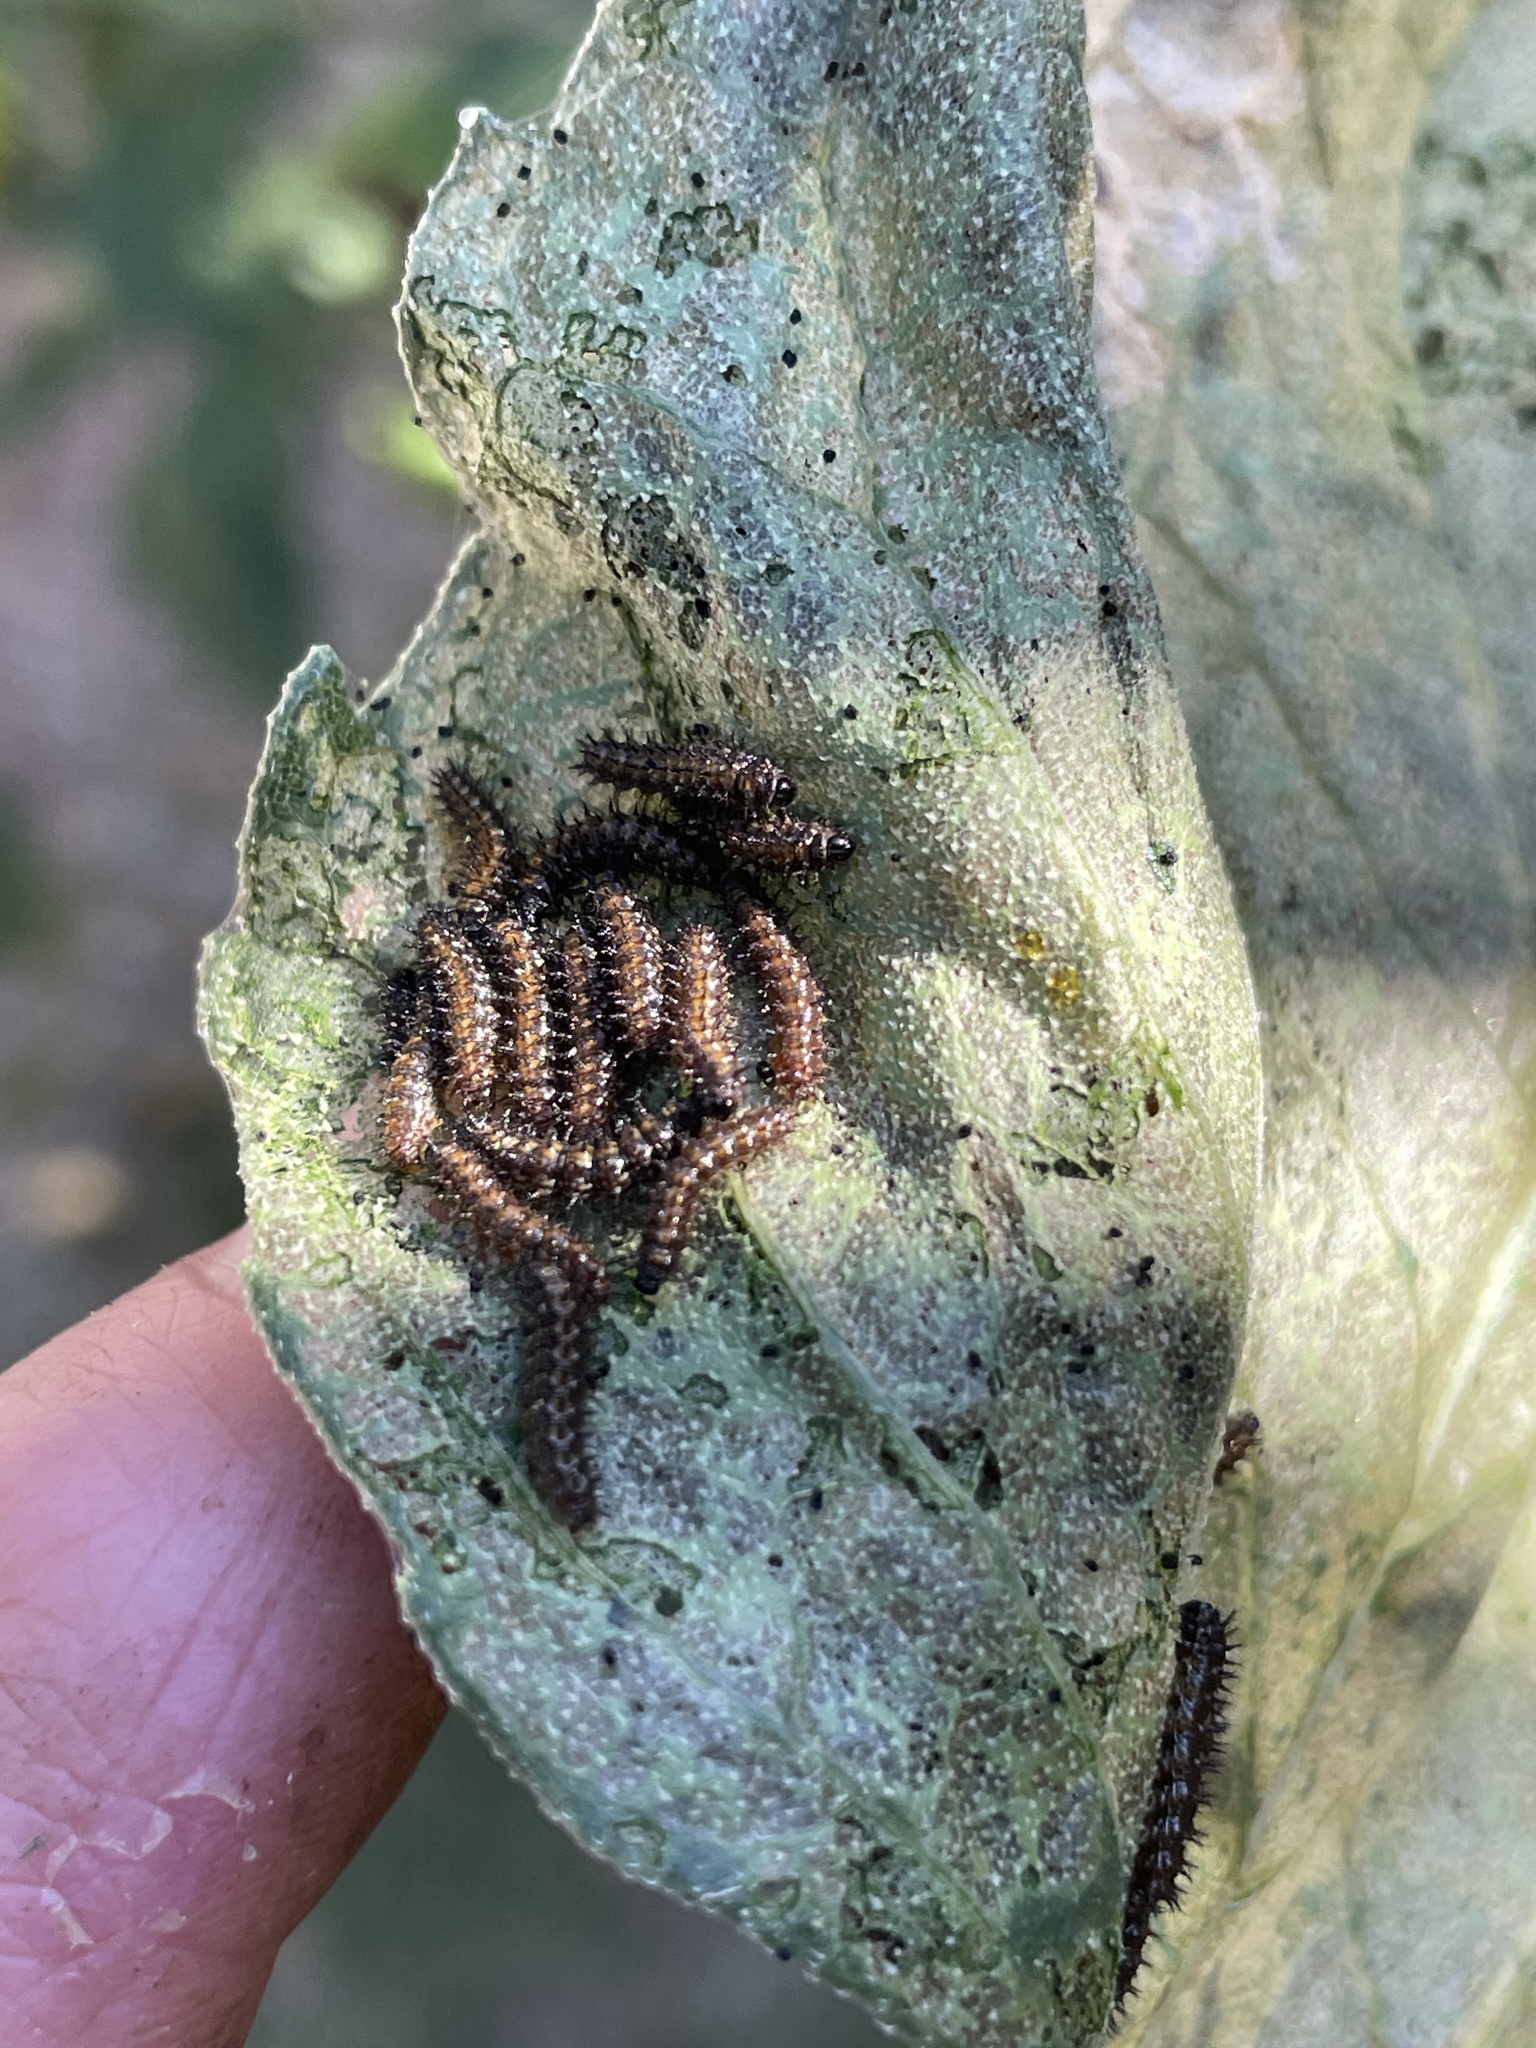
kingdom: Animalia
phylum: Arthropoda
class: Insecta
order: Lepidoptera
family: Nymphalidae
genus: Chlosyne
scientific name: Chlosyne lacinia
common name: Bordered patch
